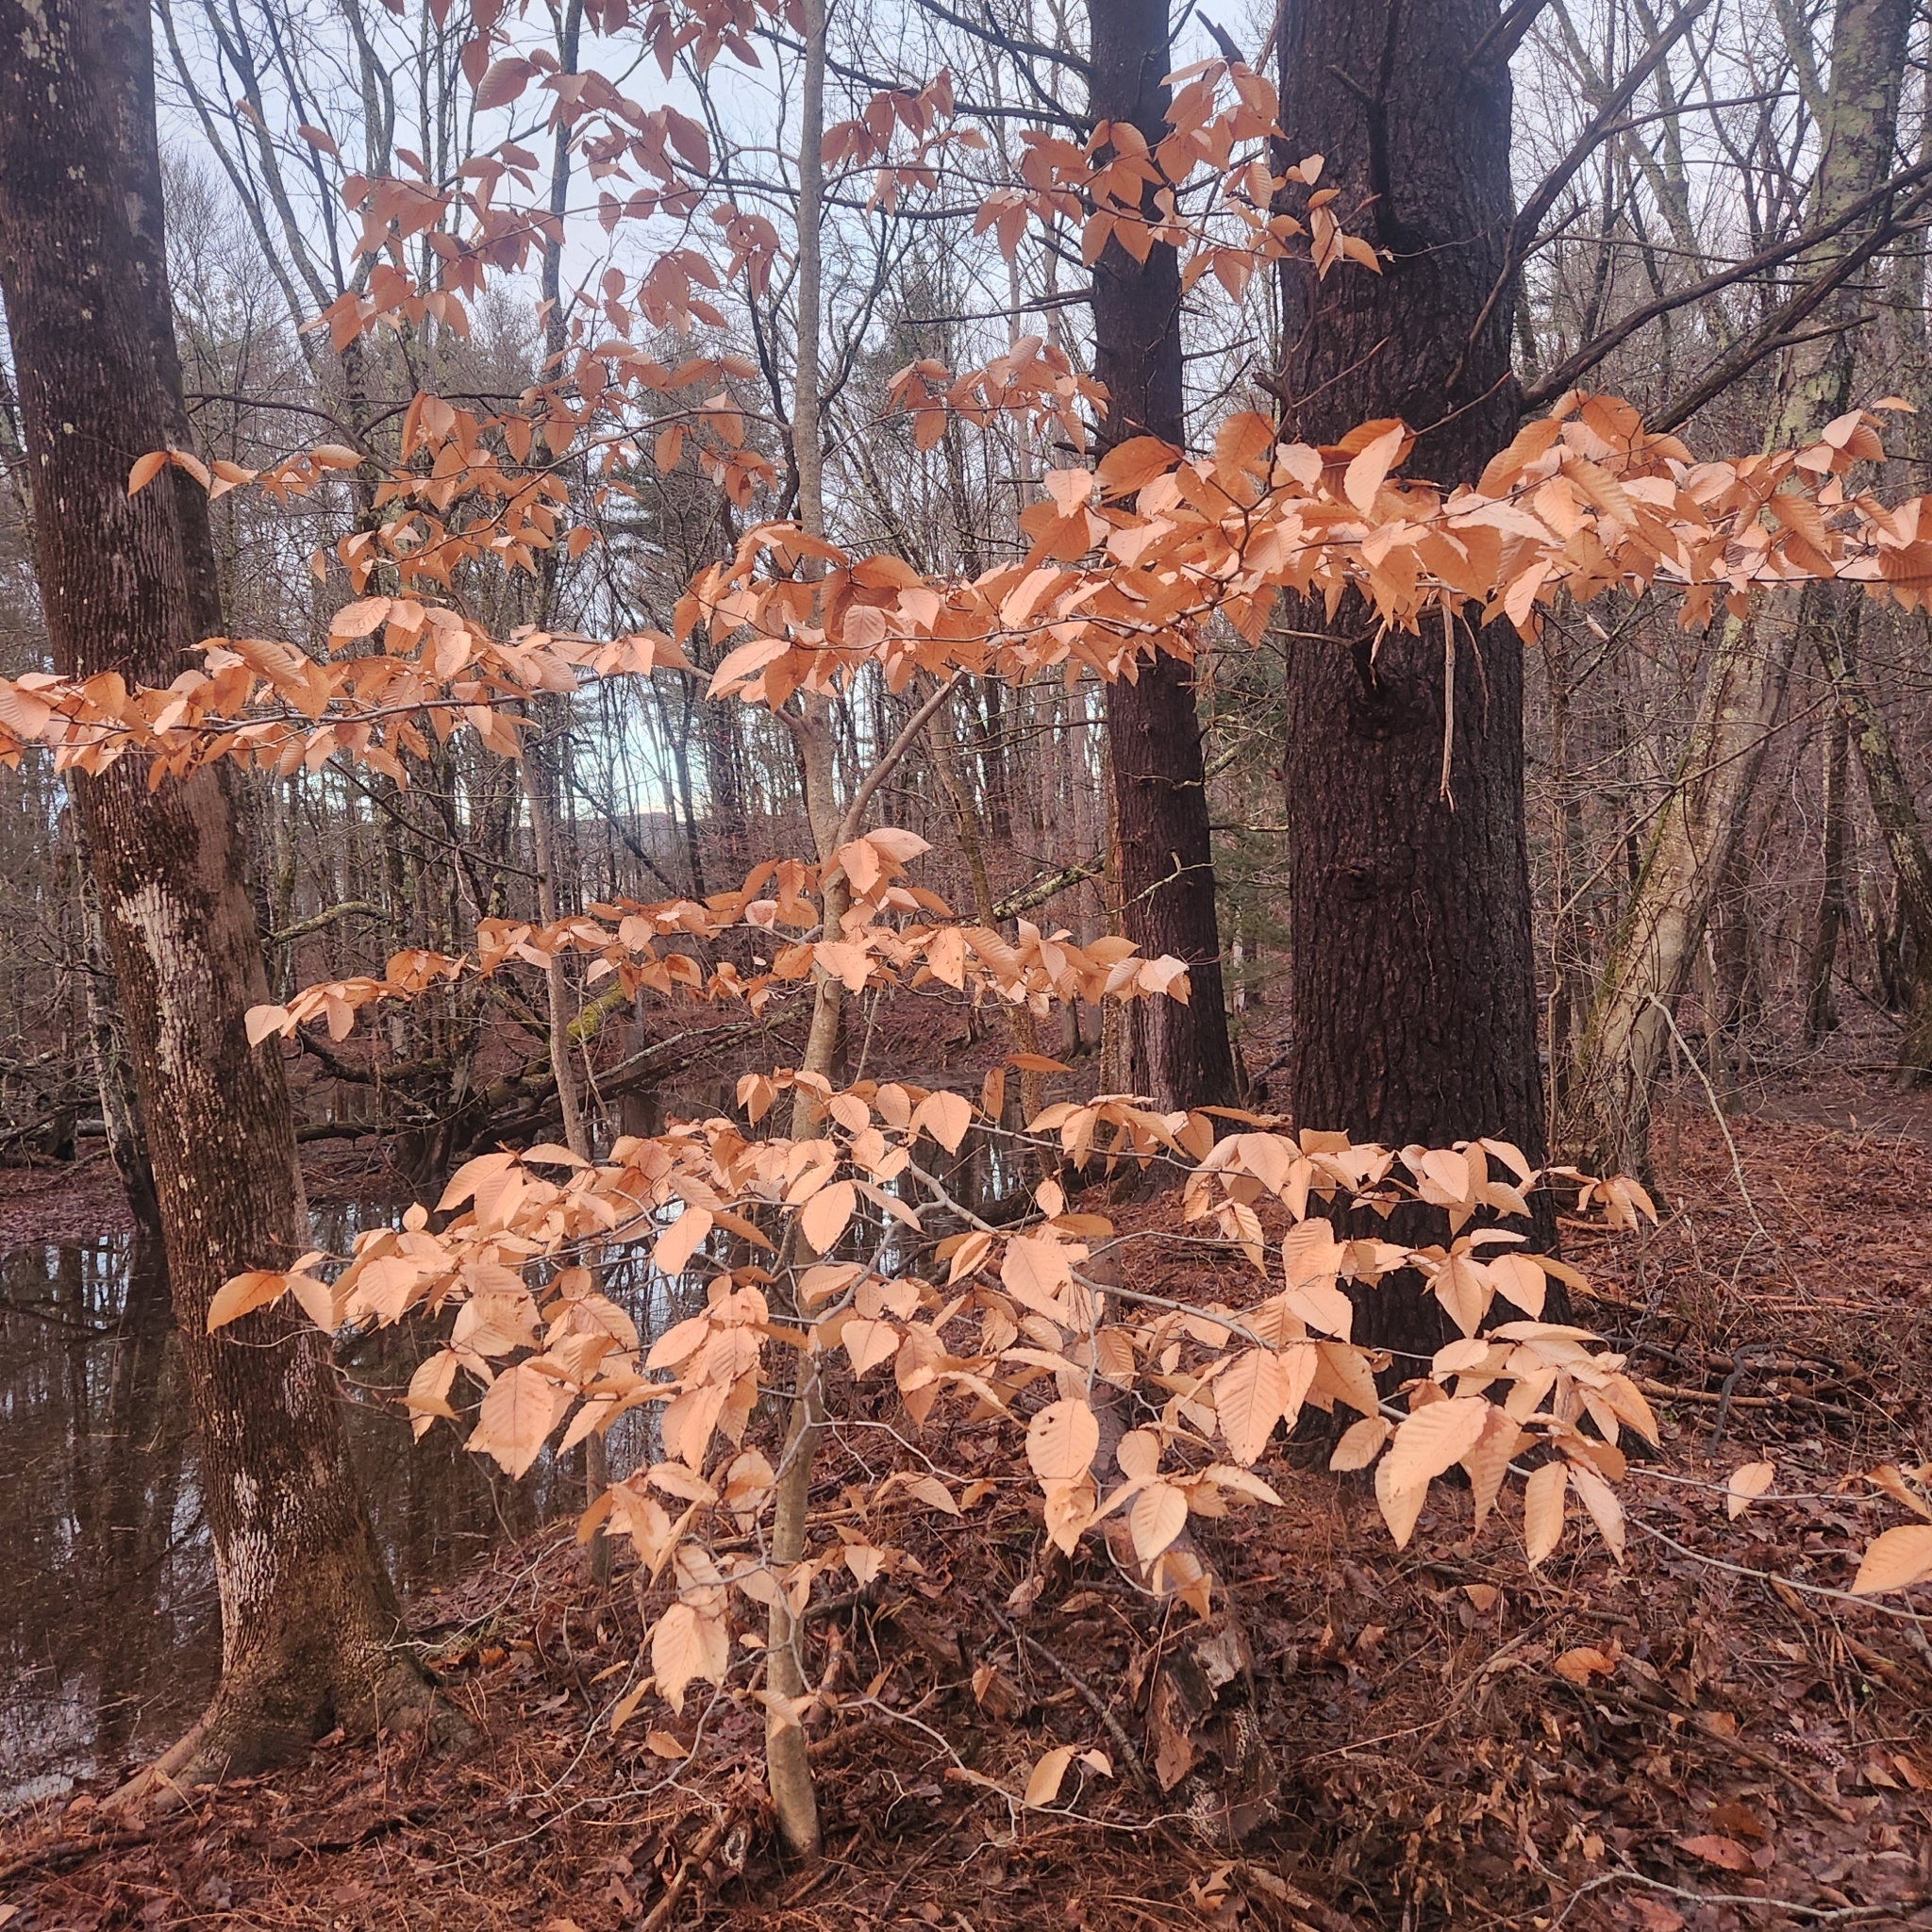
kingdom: Plantae
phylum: Tracheophyta
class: Magnoliopsida
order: Fagales
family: Fagaceae
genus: Fagus
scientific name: Fagus grandifolia
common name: American beech
